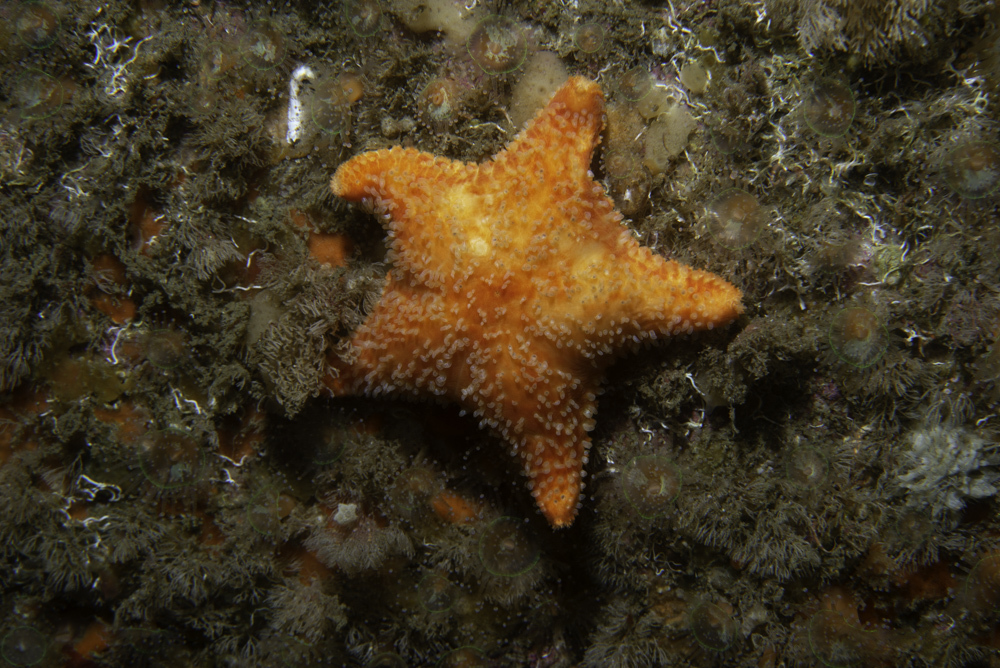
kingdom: Animalia
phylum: Echinodermata
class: Asteroidea
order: Valvatida
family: Poraniidae
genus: Porania
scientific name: Porania pulvillus
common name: Red cushion stat
